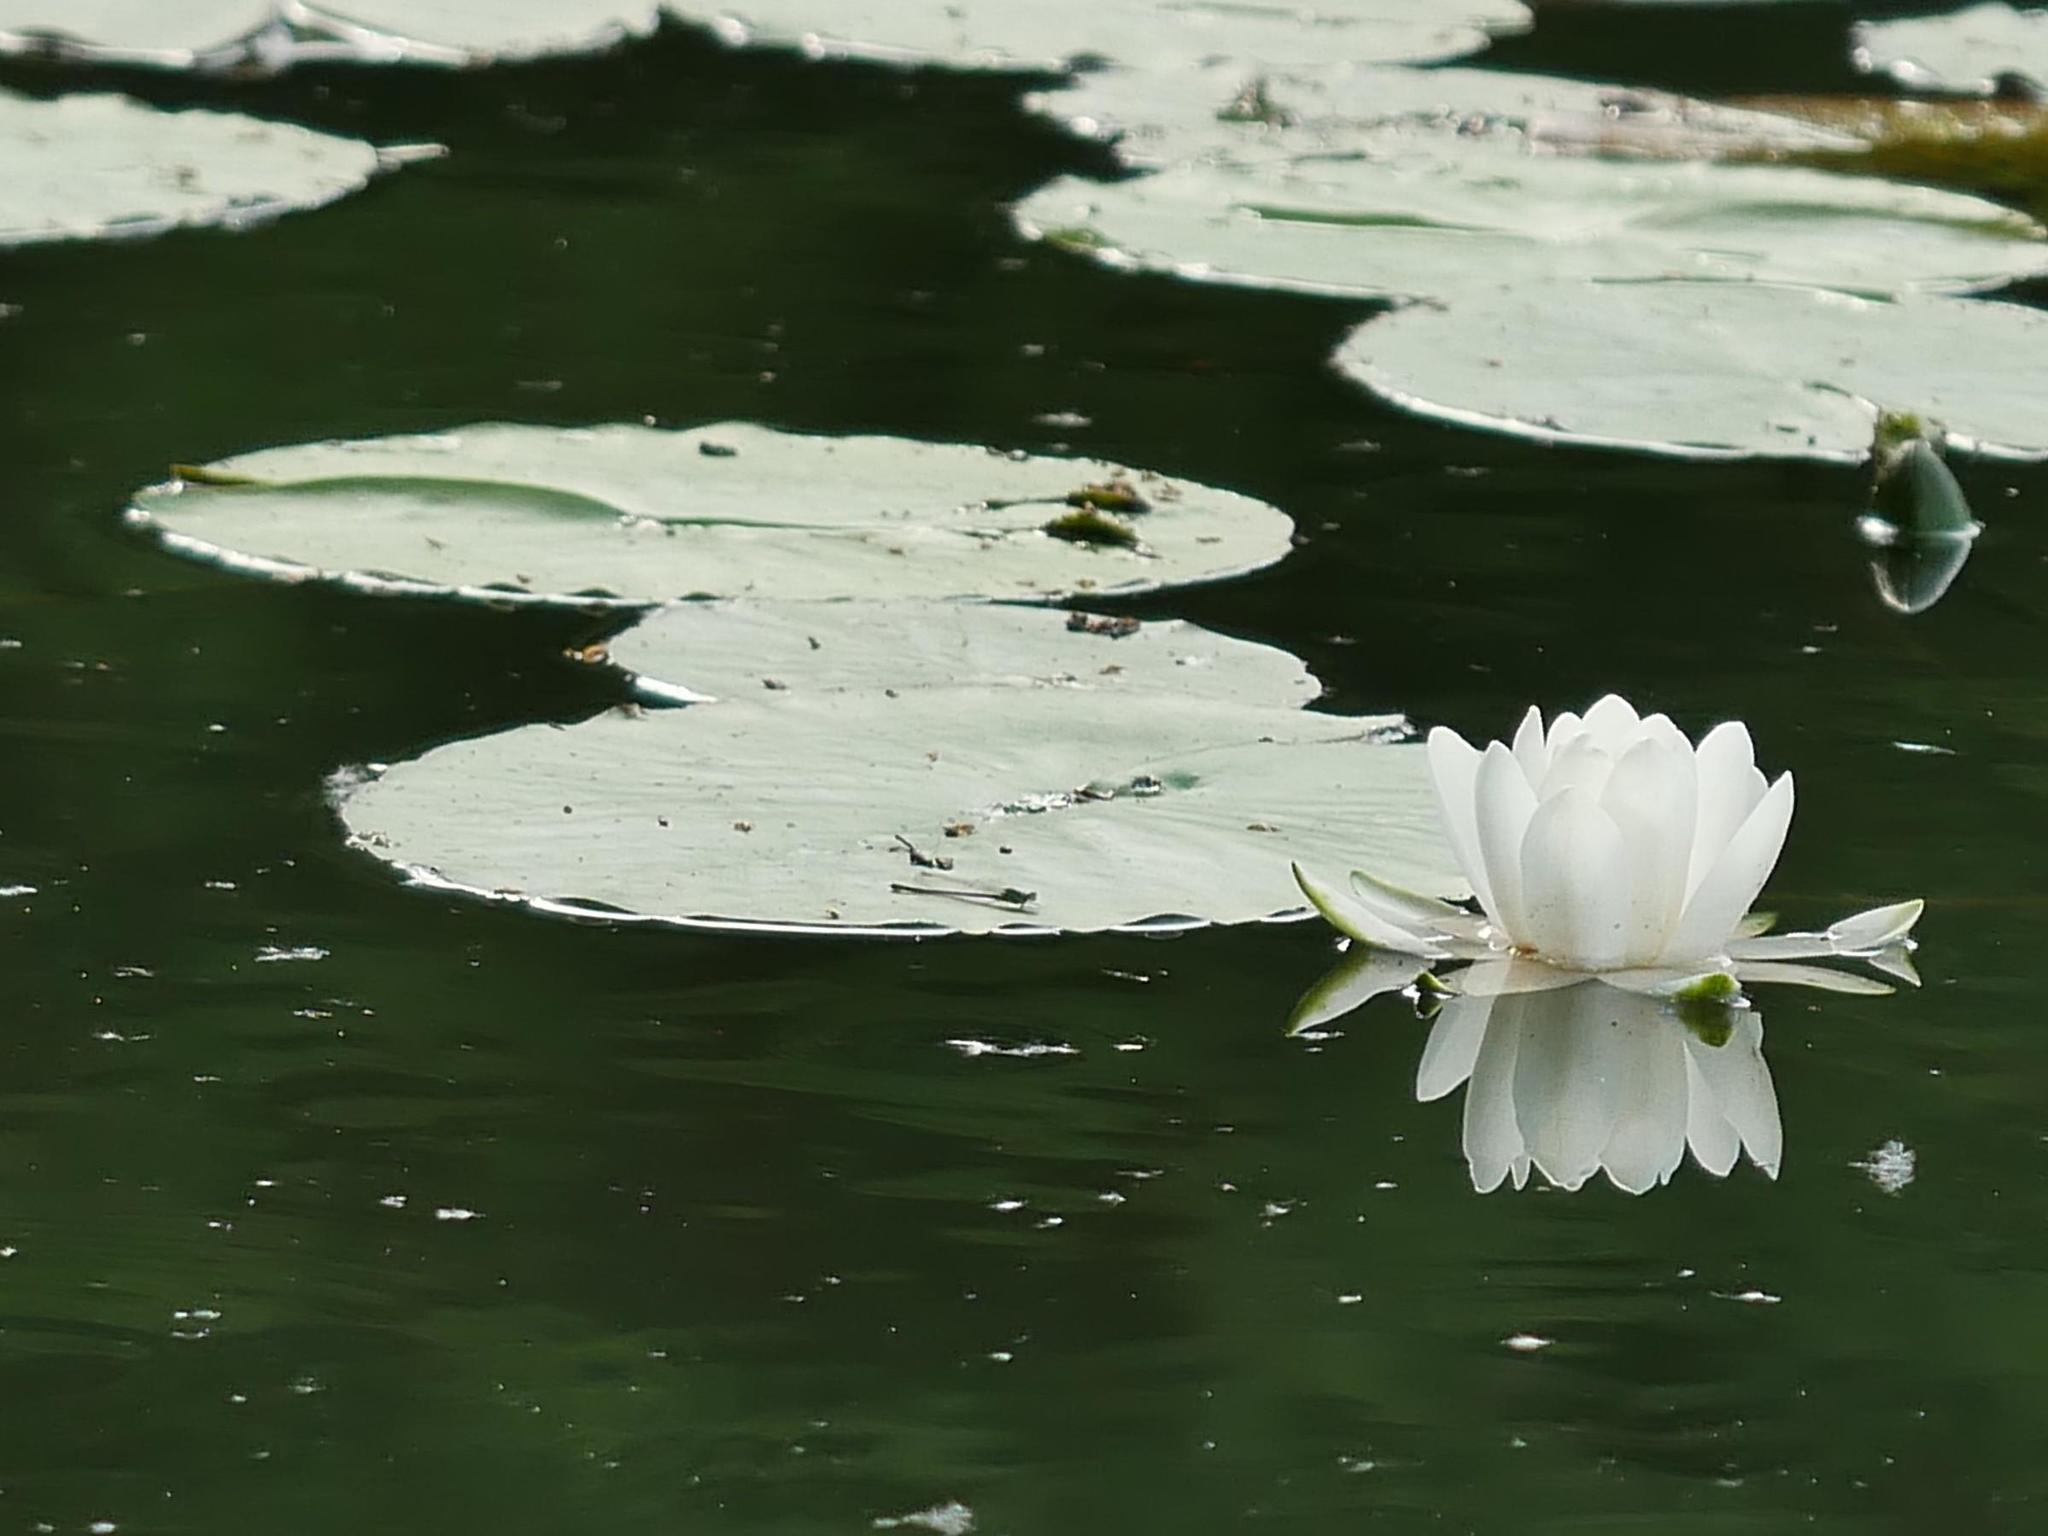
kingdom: Plantae
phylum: Tracheophyta
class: Magnoliopsida
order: Nymphaeales
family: Nymphaeaceae
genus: Nymphaea
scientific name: Nymphaea alba
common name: White water-lily
